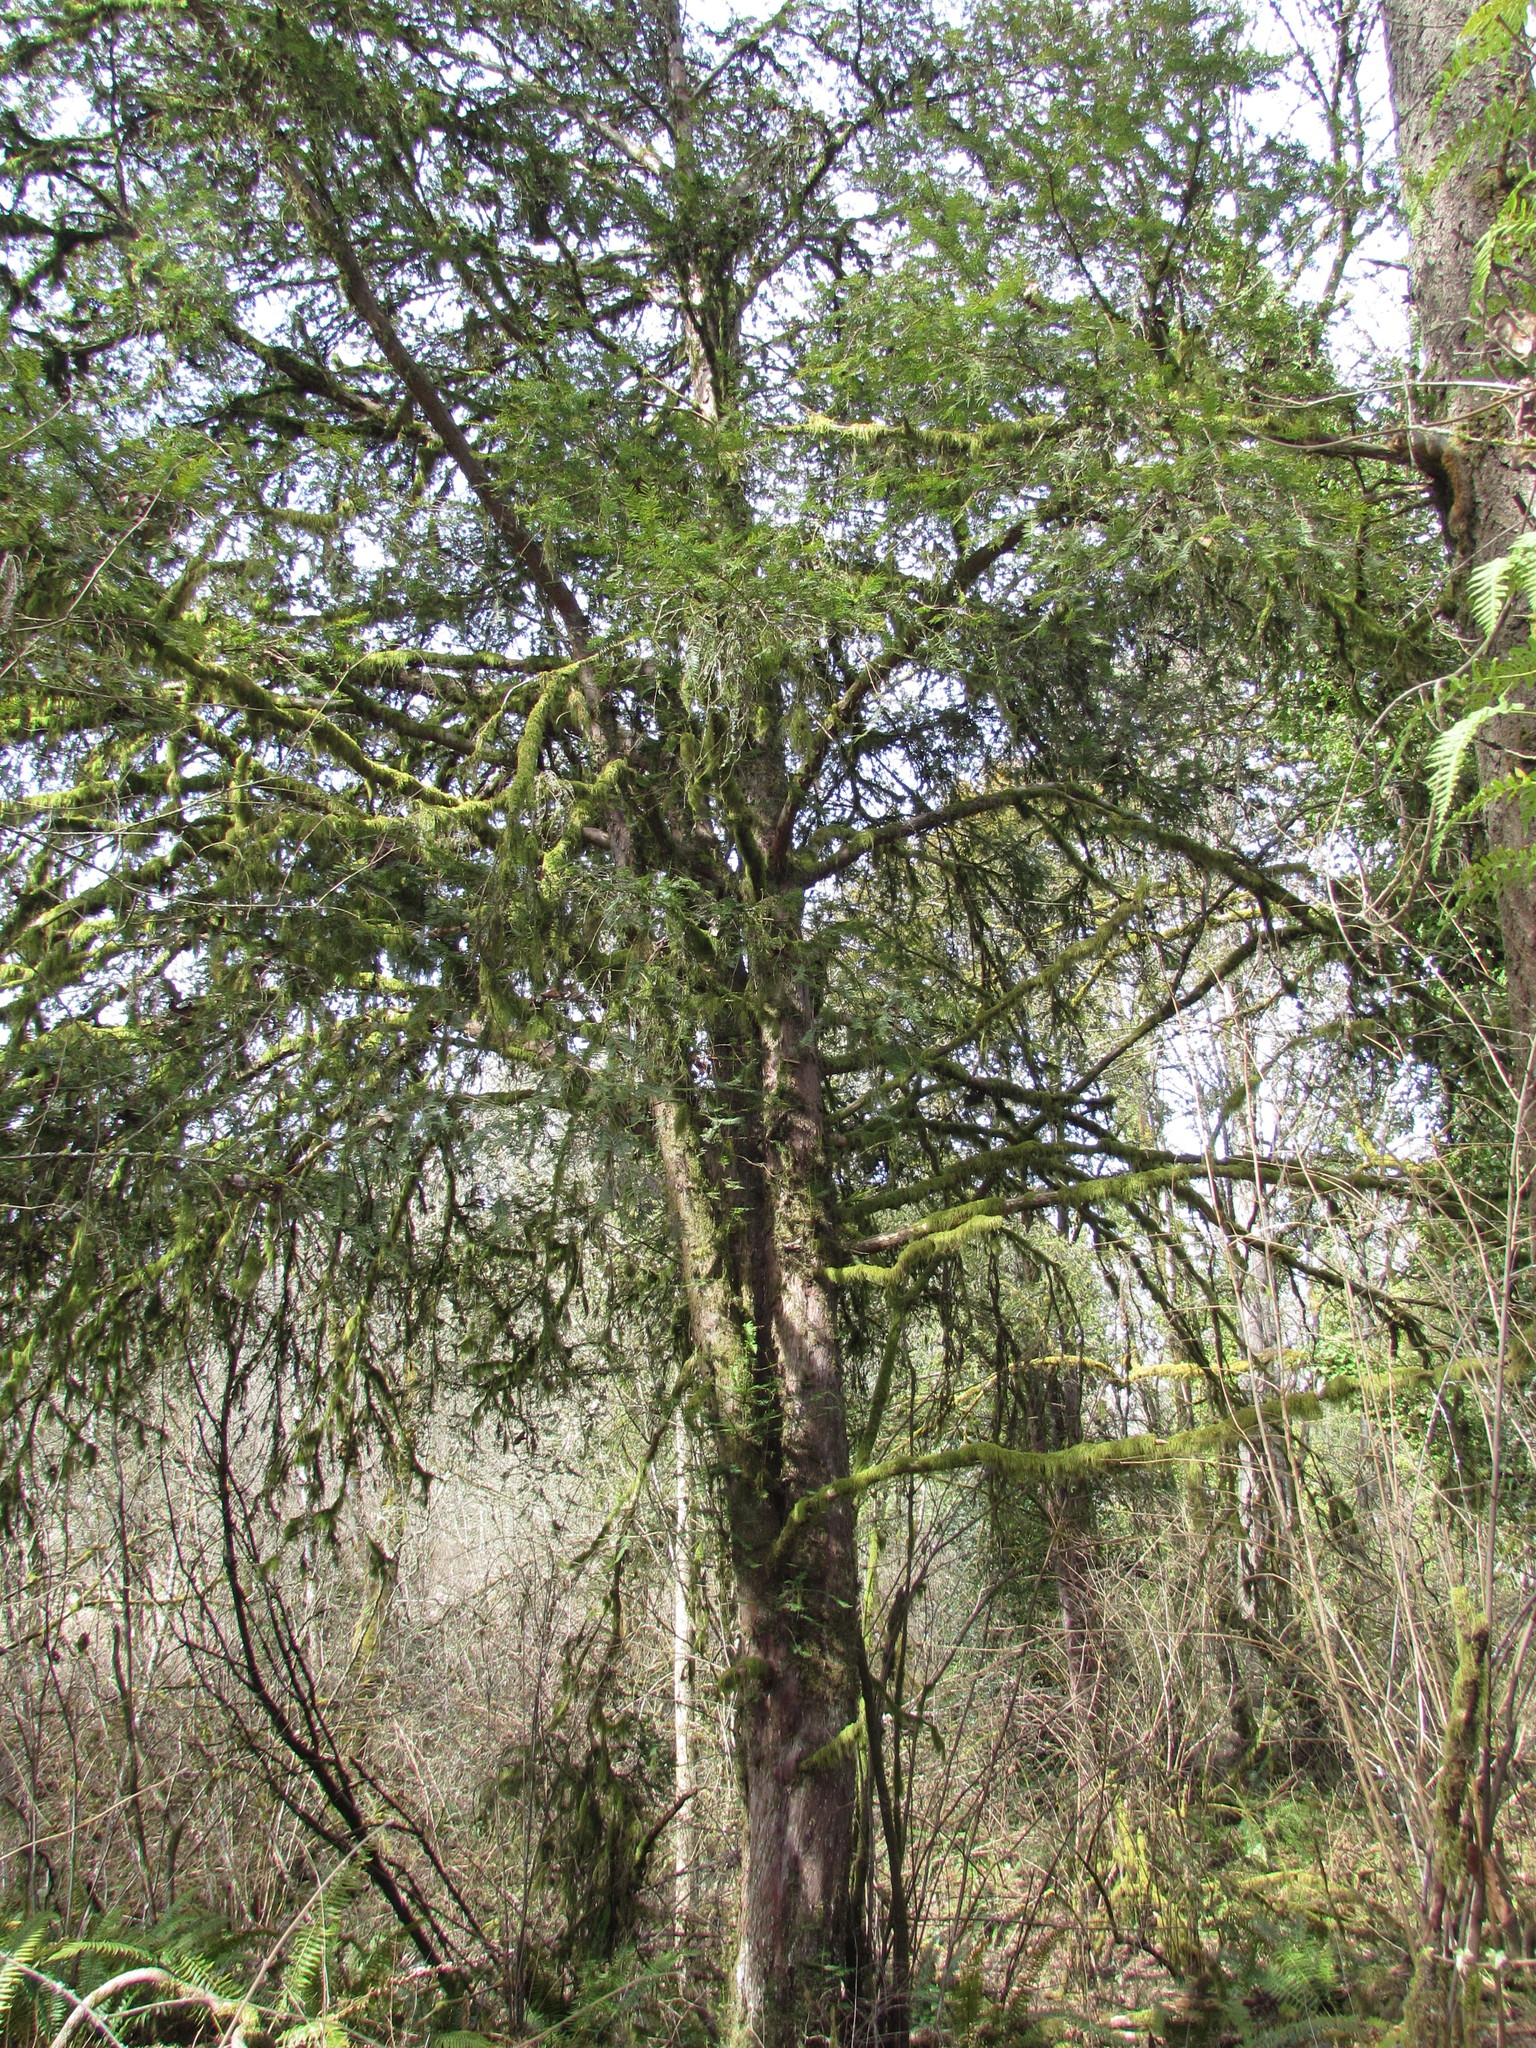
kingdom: Plantae
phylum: Tracheophyta
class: Pinopsida
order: Pinales
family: Taxaceae
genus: Taxus
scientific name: Taxus brevifolia
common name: Pacific yew
